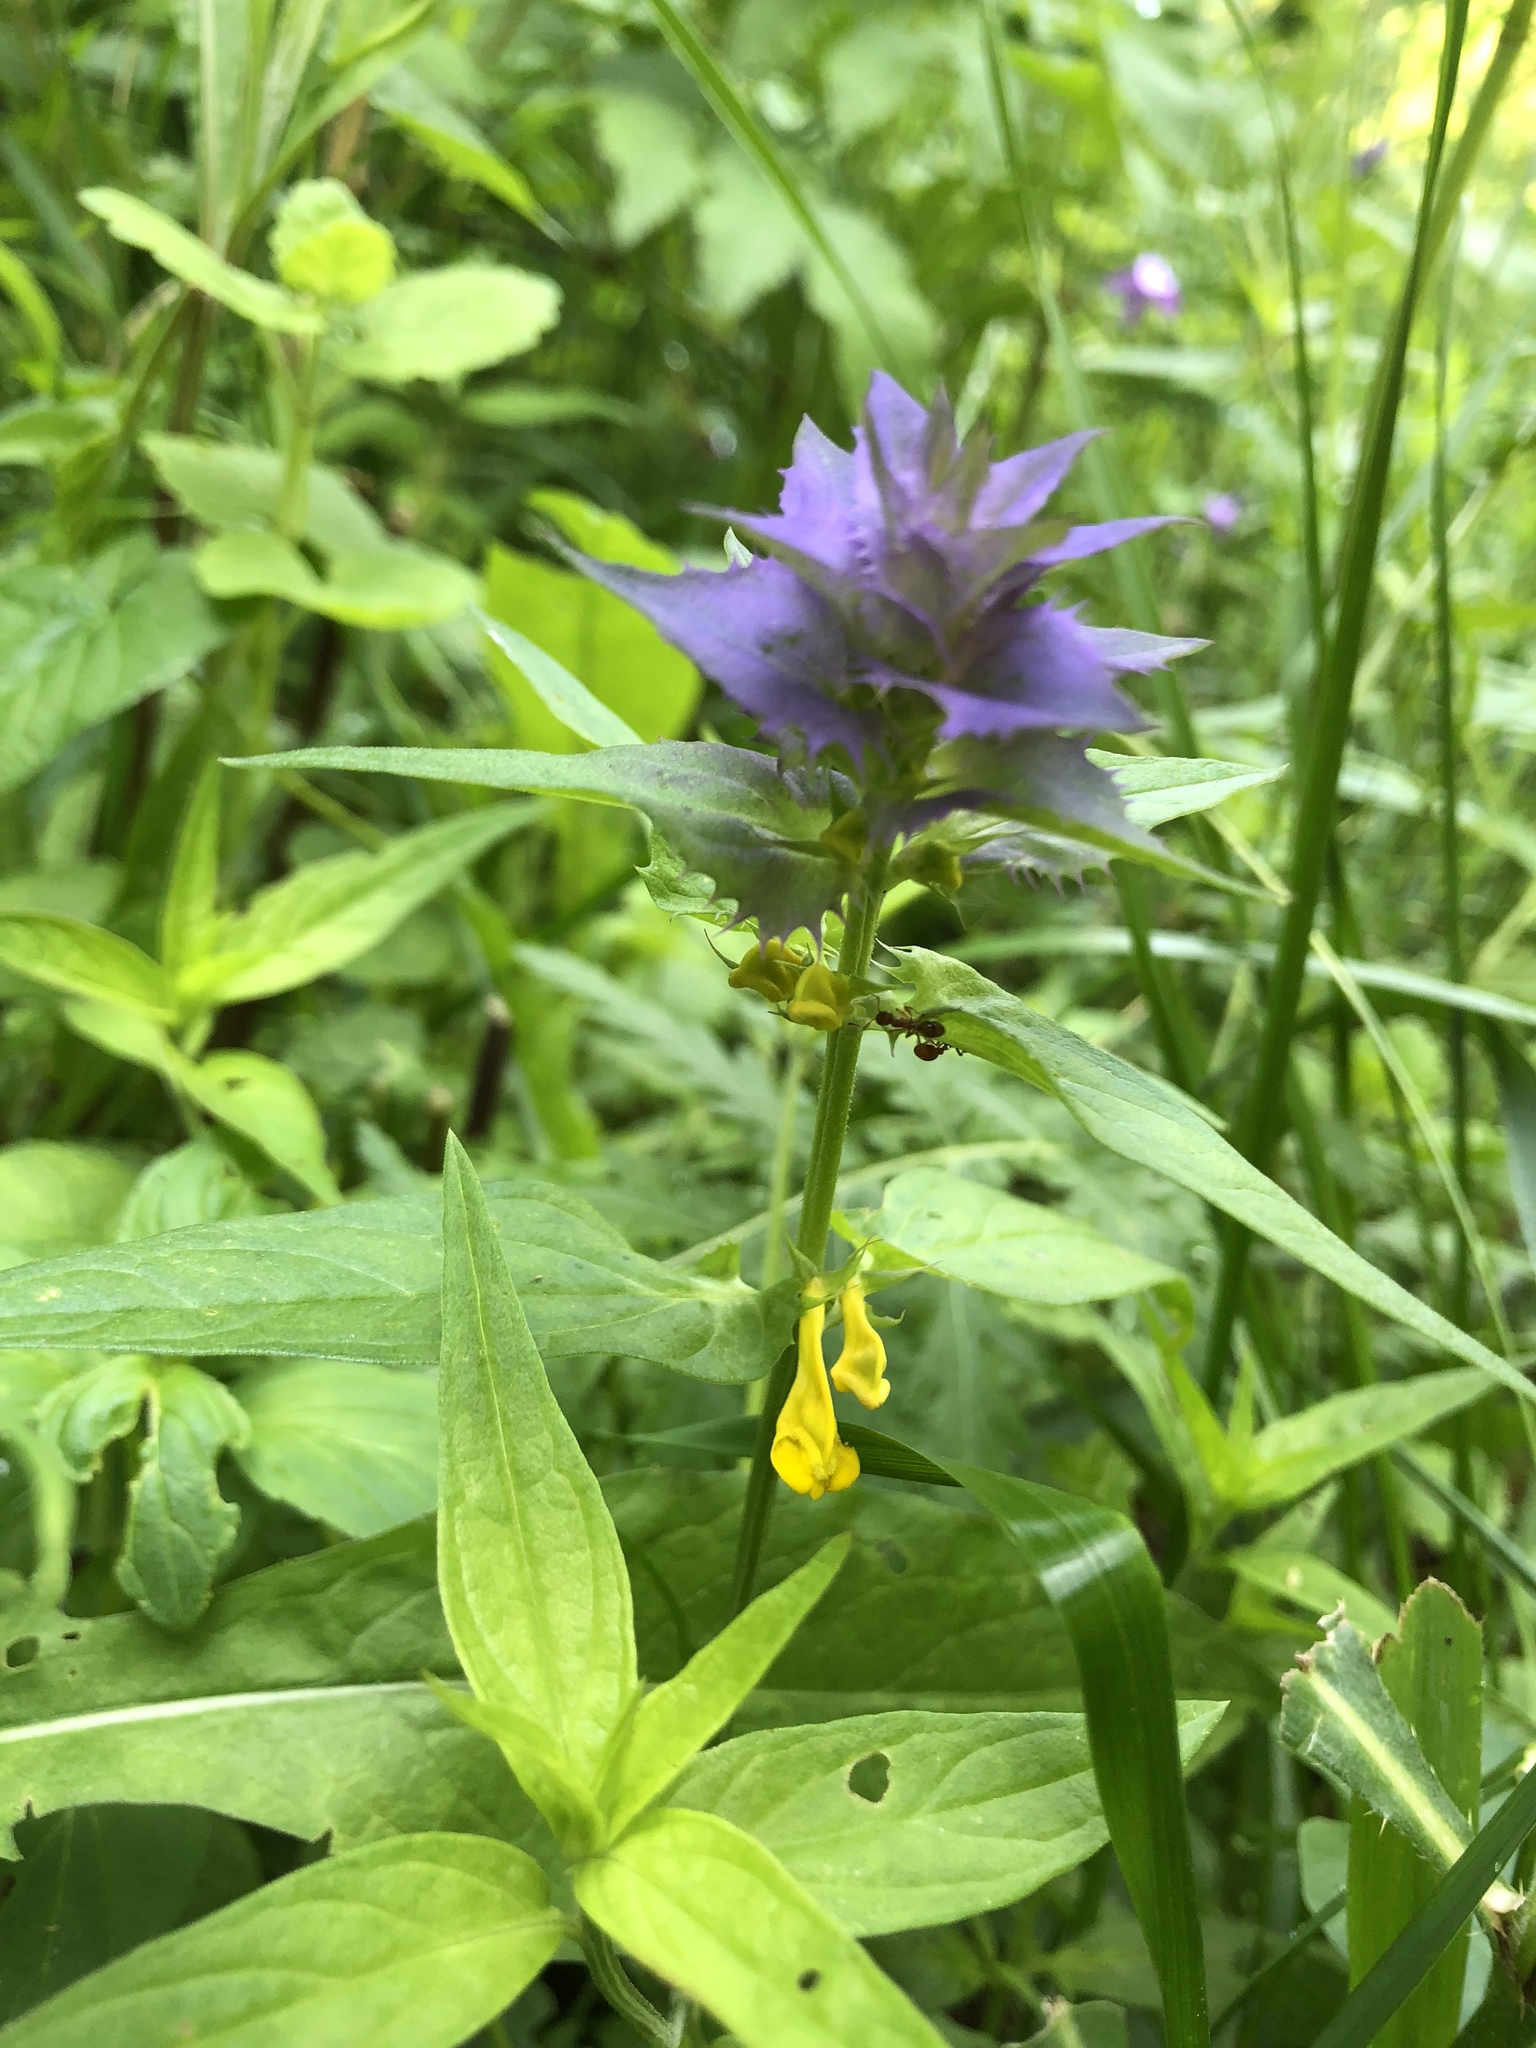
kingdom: Plantae
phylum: Tracheophyta
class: Magnoliopsida
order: Lamiales
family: Orobanchaceae
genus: Melampyrum
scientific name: Melampyrum bihariense
